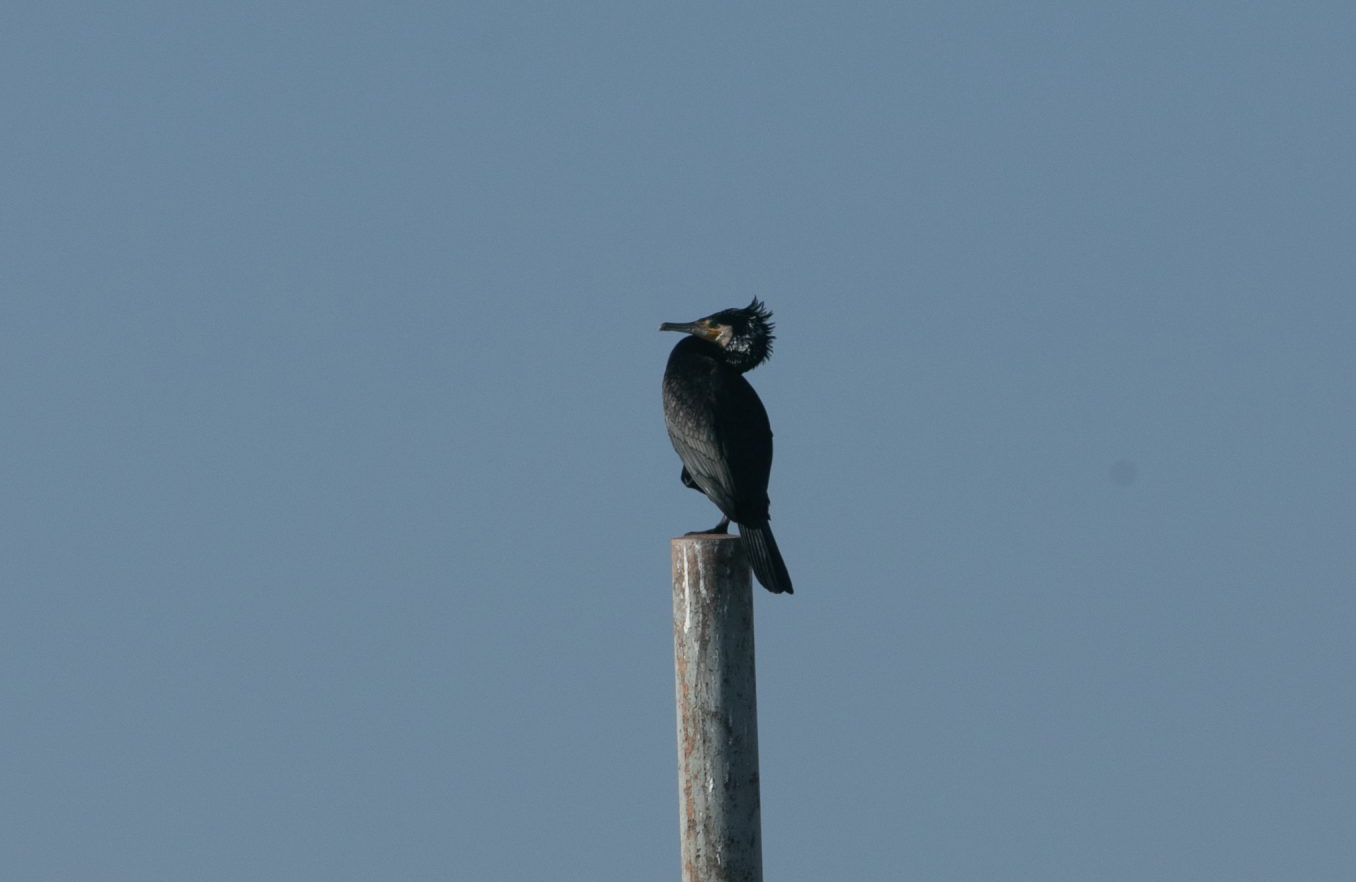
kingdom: Animalia
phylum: Chordata
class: Aves
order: Suliformes
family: Phalacrocoracidae
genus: Phalacrocorax
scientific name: Phalacrocorax carbo
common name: Great cormorant
